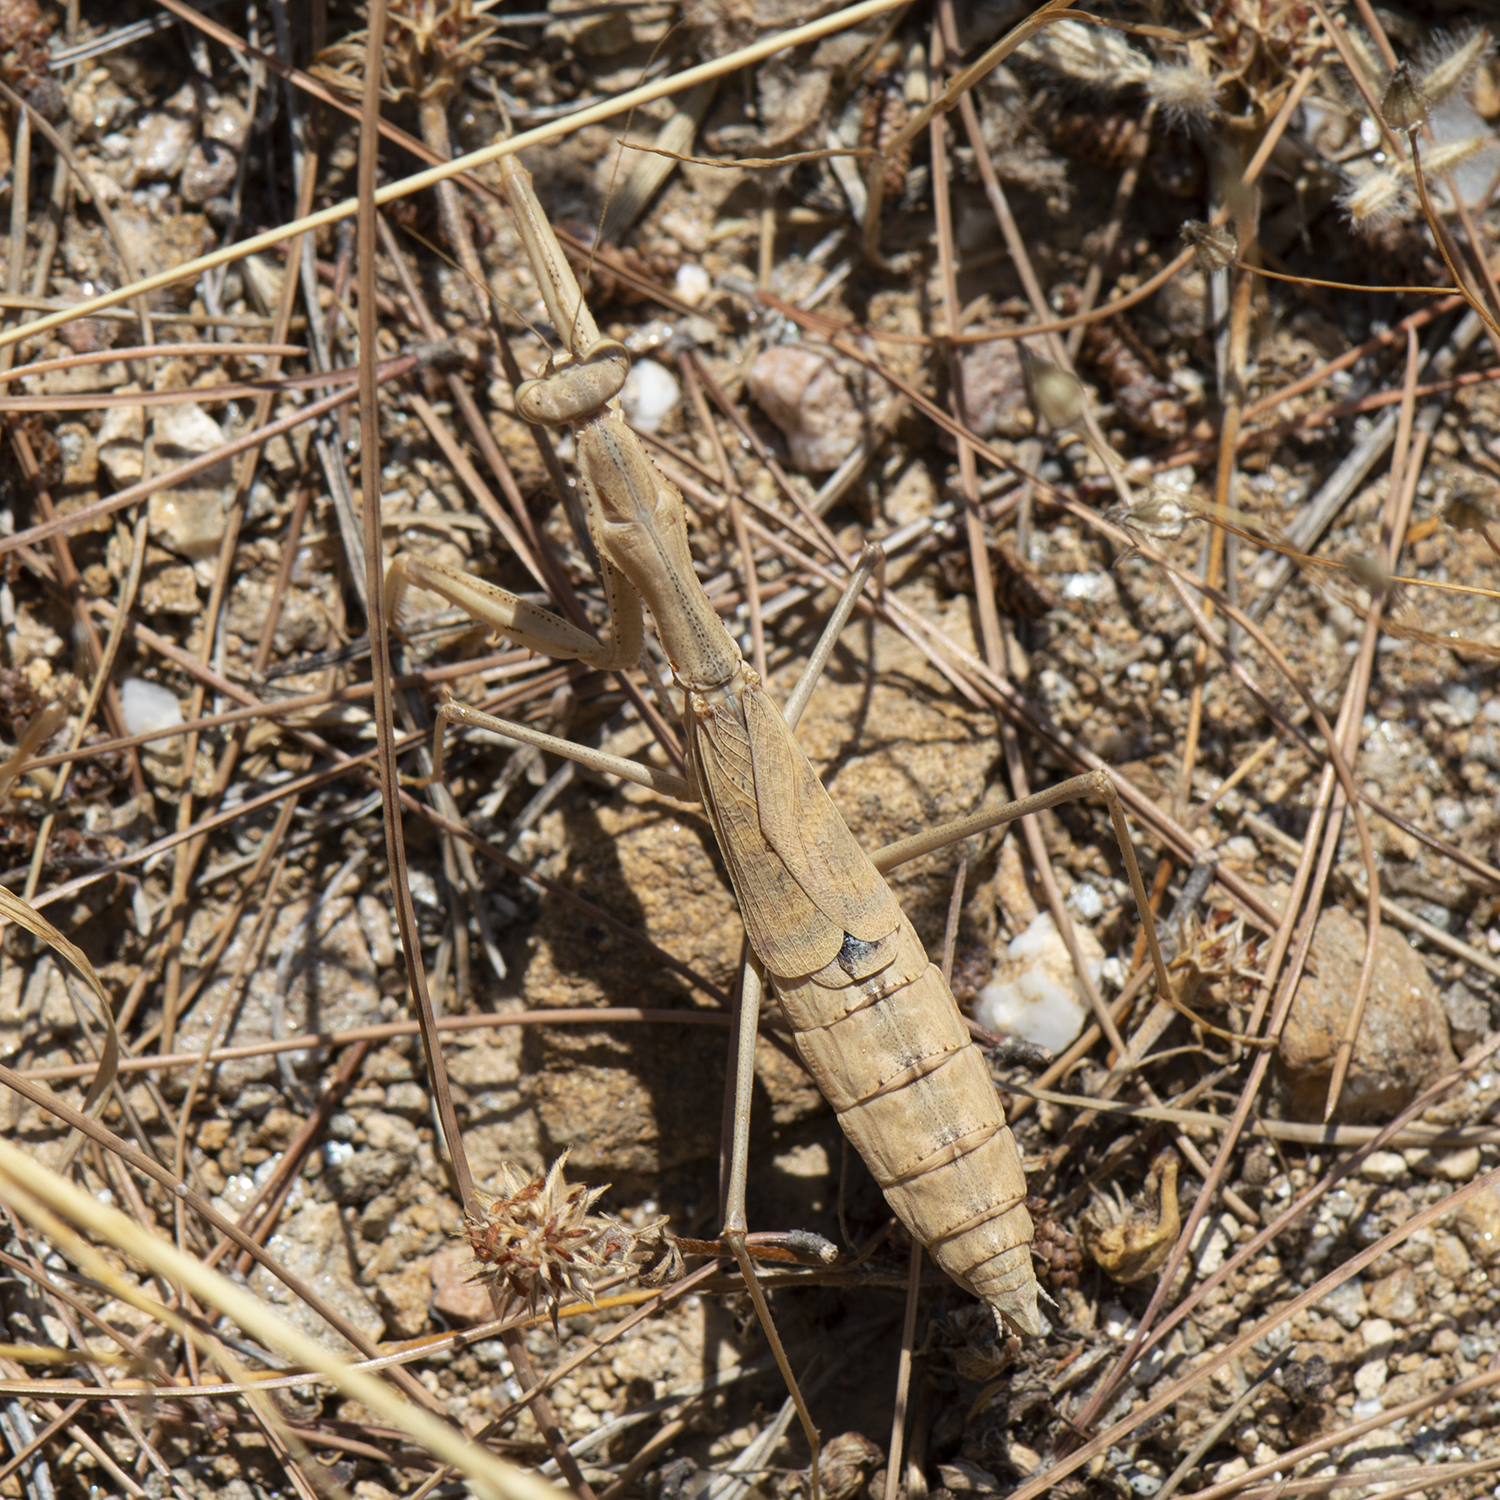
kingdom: Animalia
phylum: Arthropoda
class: Insecta
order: Mantodea
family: Rivetinidae
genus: Rivetina
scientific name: Rivetina balcanica
